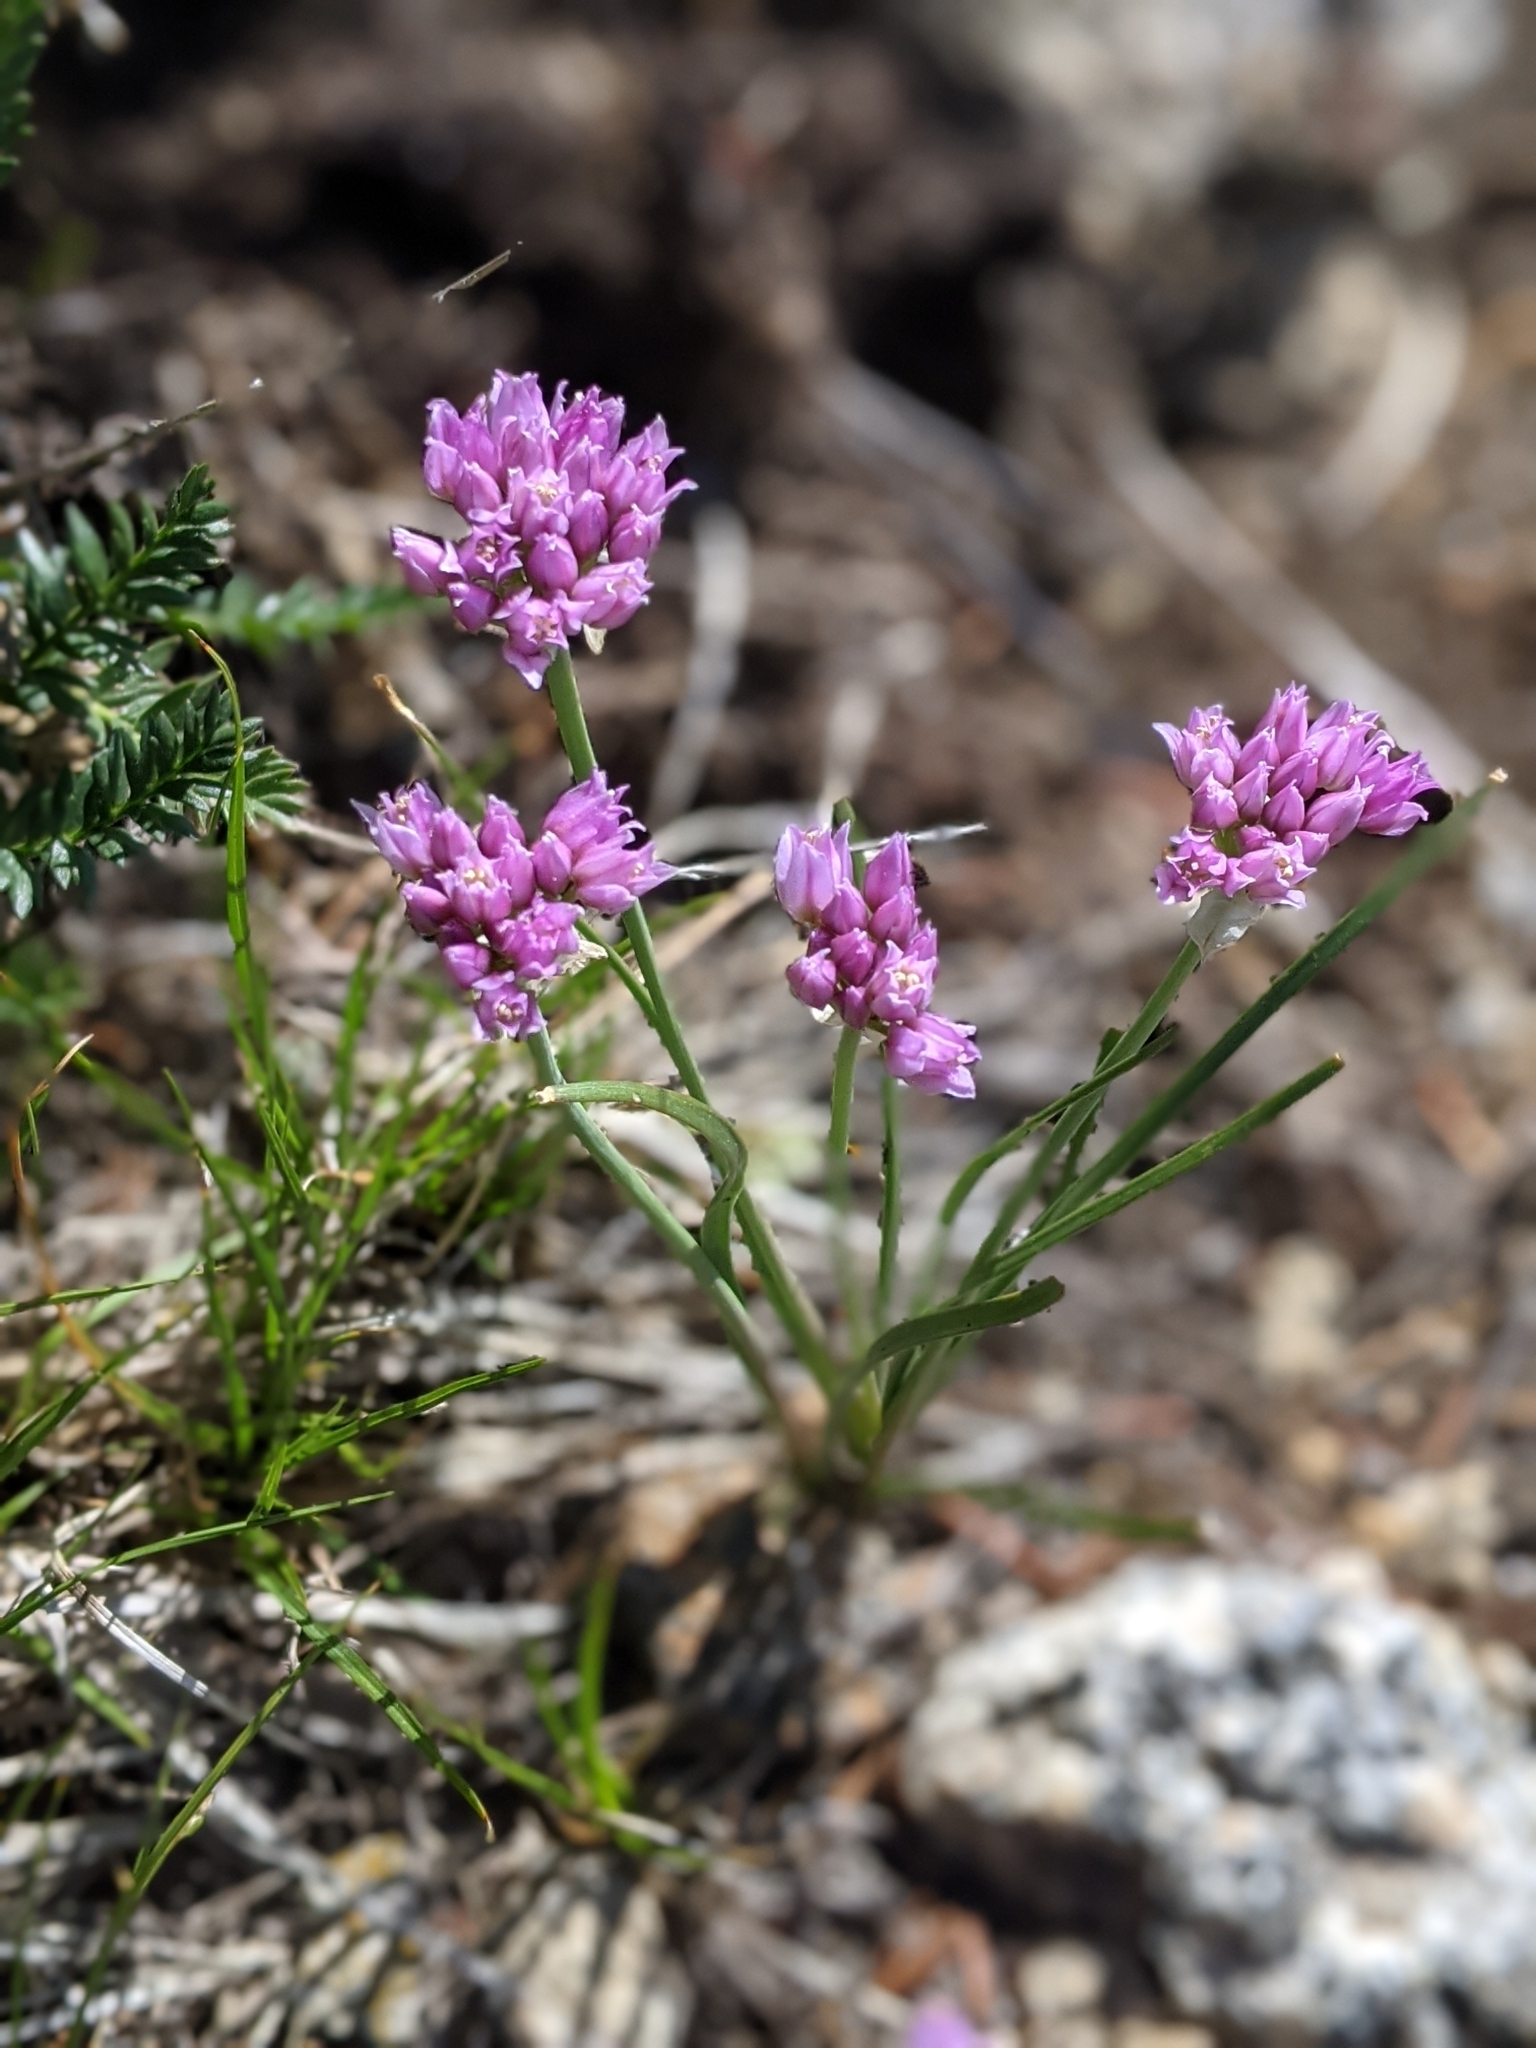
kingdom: Plantae
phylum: Tracheophyta
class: Liliopsida
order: Asparagales
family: Amaryllidaceae
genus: Allium
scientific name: Allium geyeri
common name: Geyer's onion
